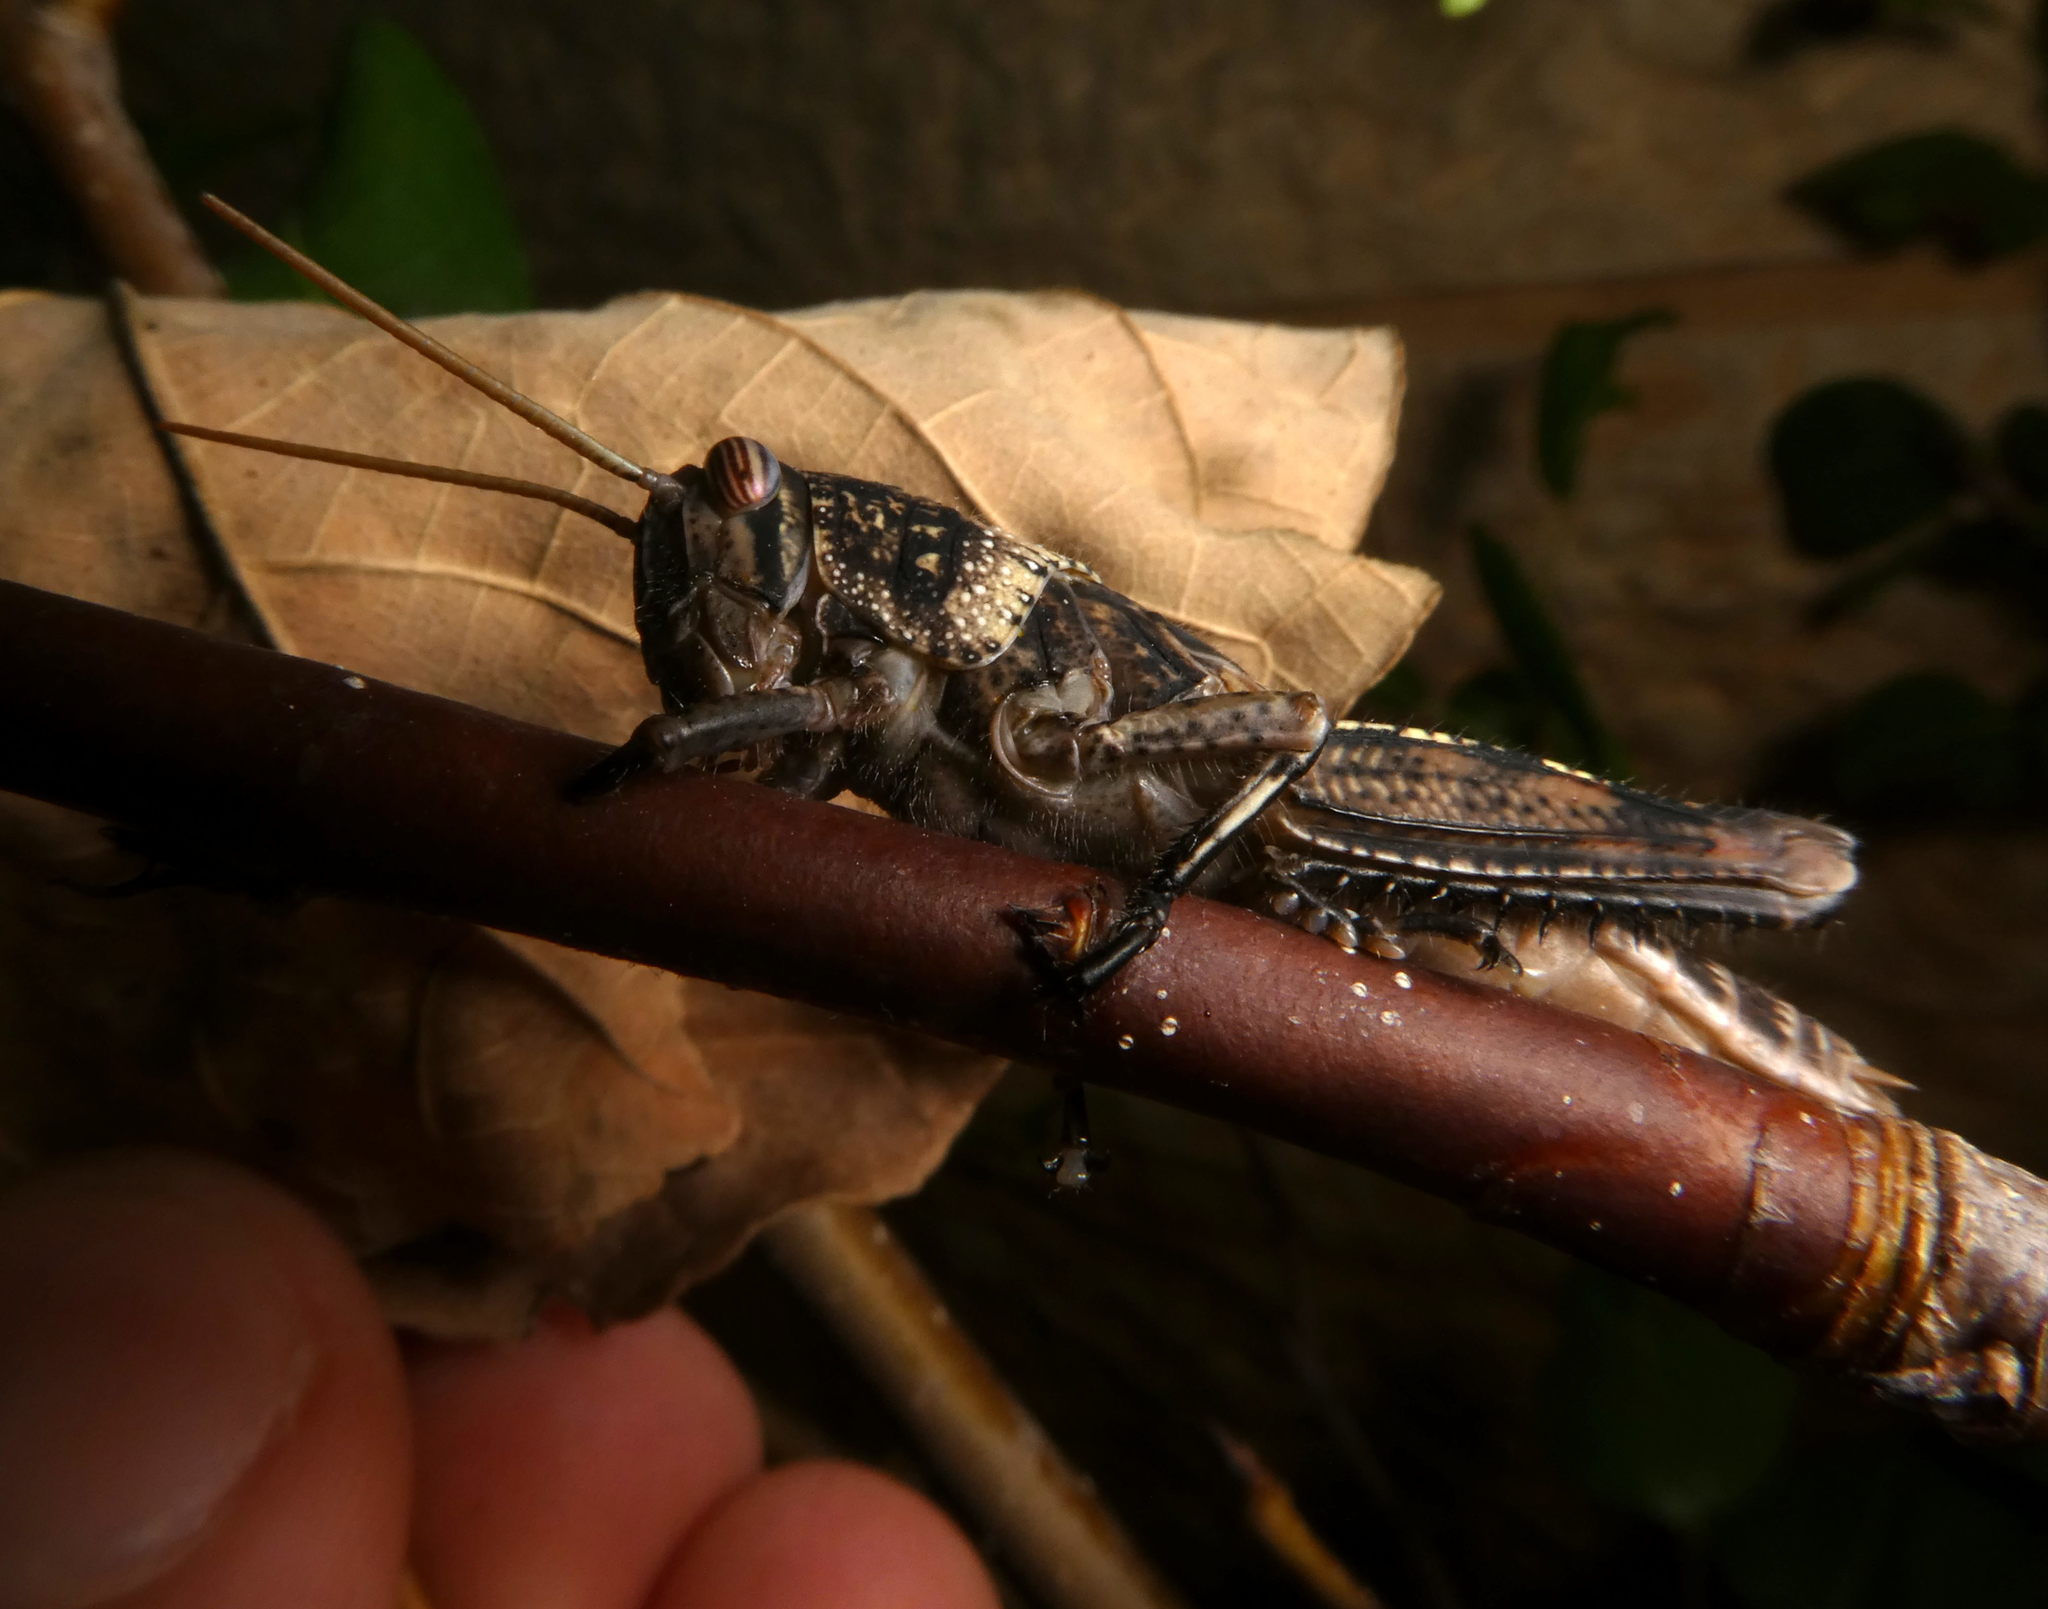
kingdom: Animalia
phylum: Arthropoda
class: Insecta
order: Orthoptera
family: Acrididae
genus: Anacridium
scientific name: Anacridium aegyptium
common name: Egyptian grasshopper
